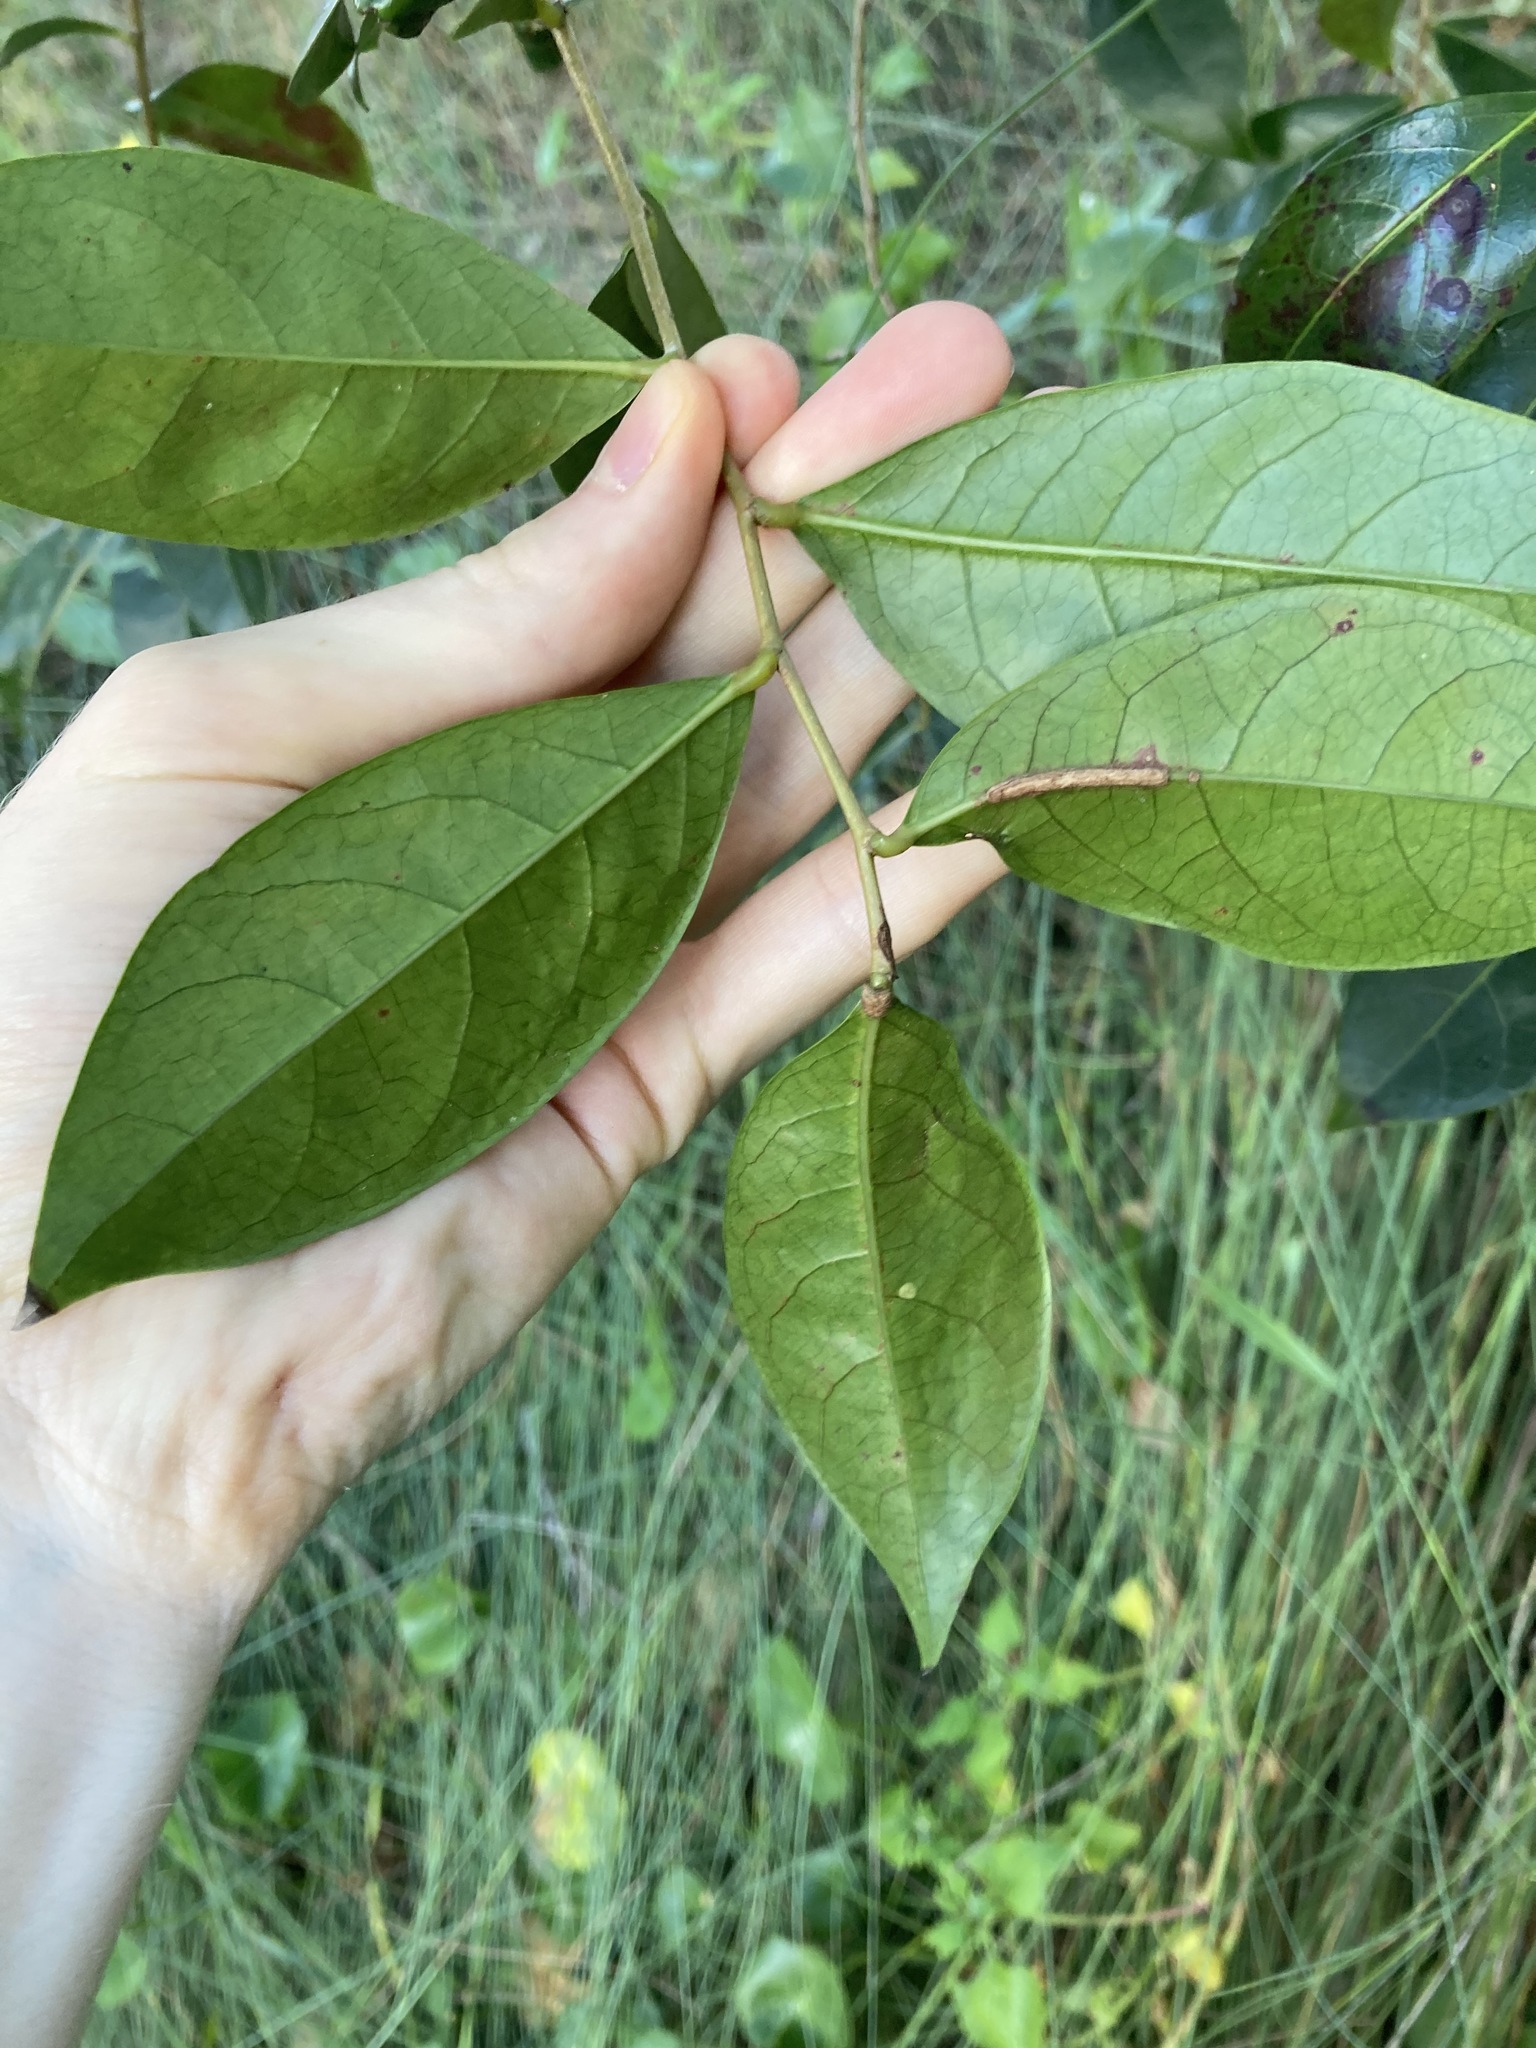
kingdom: Plantae
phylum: Tracheophyta
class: Magnoliopsida
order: Malpighiales
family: Phyllanthaceae
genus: Glochidion
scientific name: Glochidion ferdinandi
